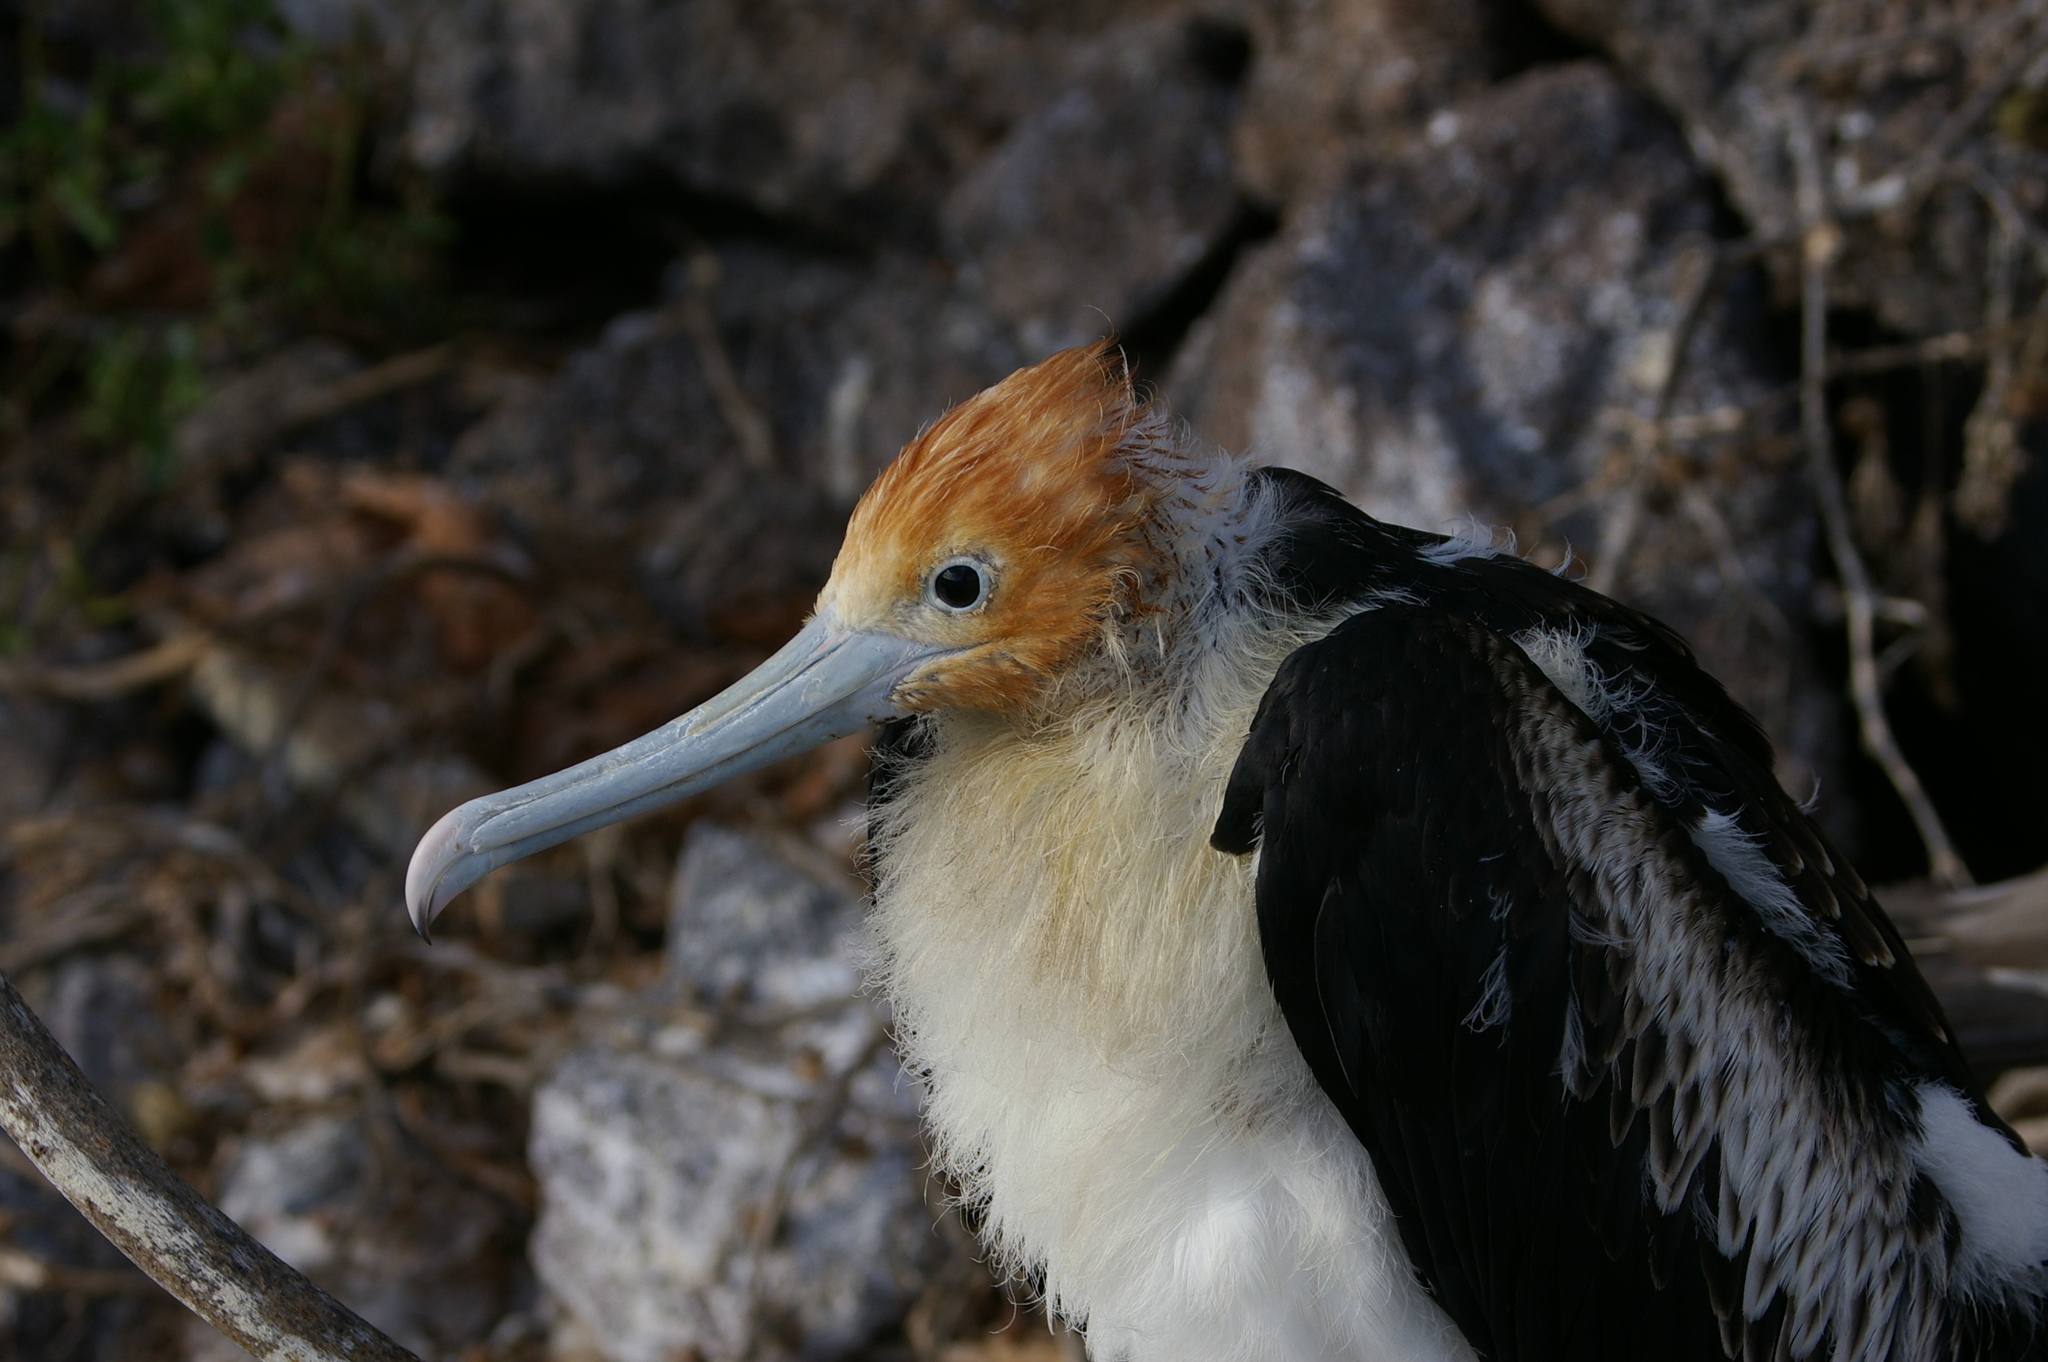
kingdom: Animalia
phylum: Chordata
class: Aves
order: Suliformes
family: Fregatidae
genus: Fregata
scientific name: Fregata minor
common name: Great frigatebird
